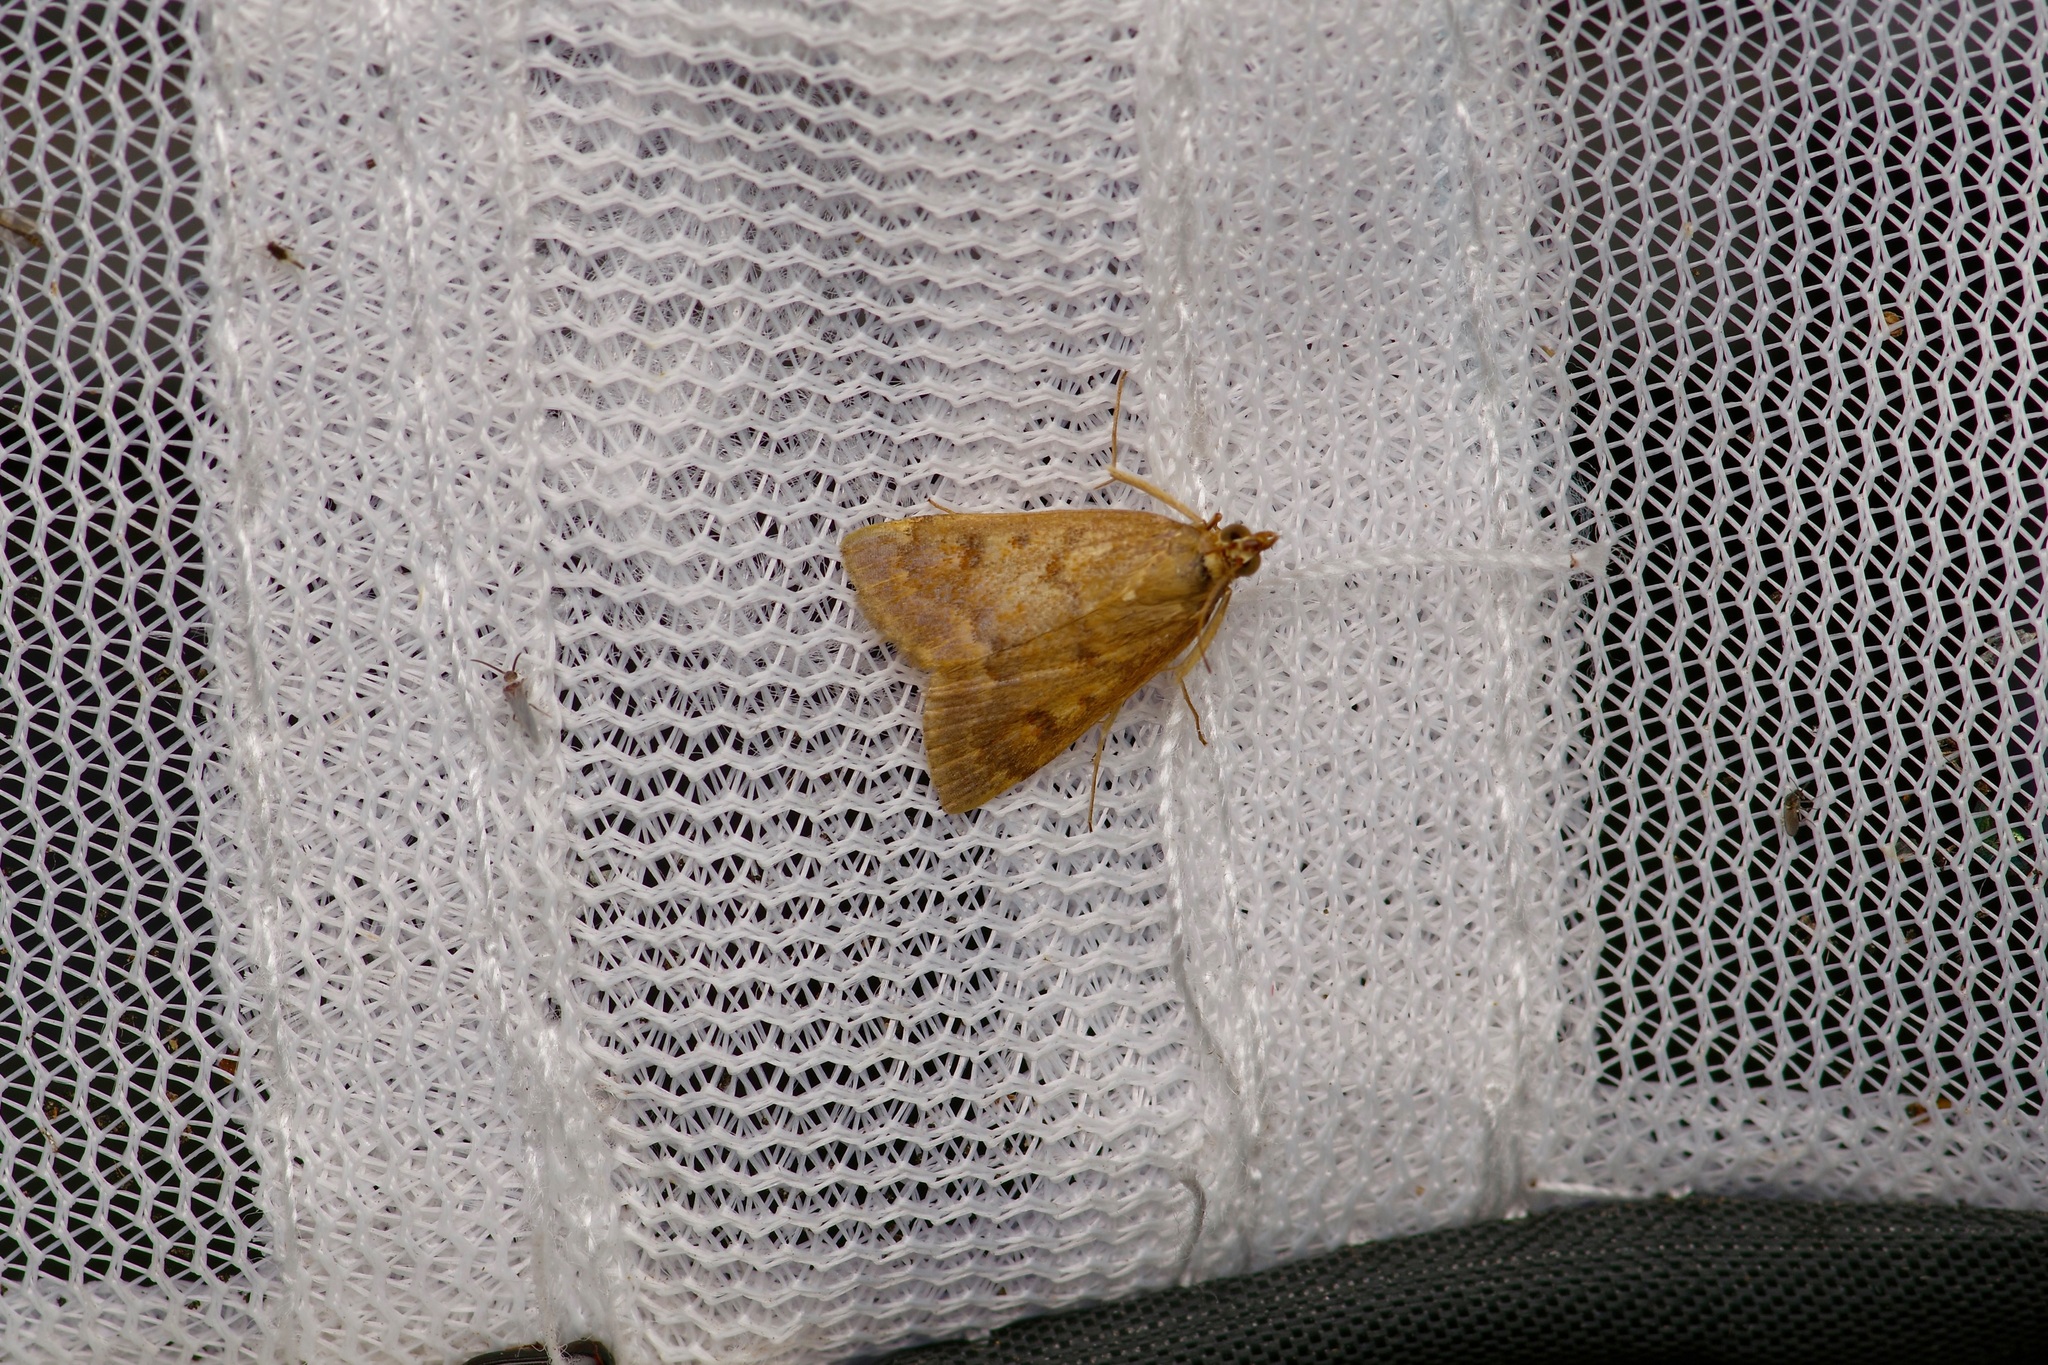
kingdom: Animalia
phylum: Arthropoda
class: Insecta
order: Lepidoptera
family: Crambidae
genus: Achyra
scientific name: Achyra rantalis
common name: Garden webworm
